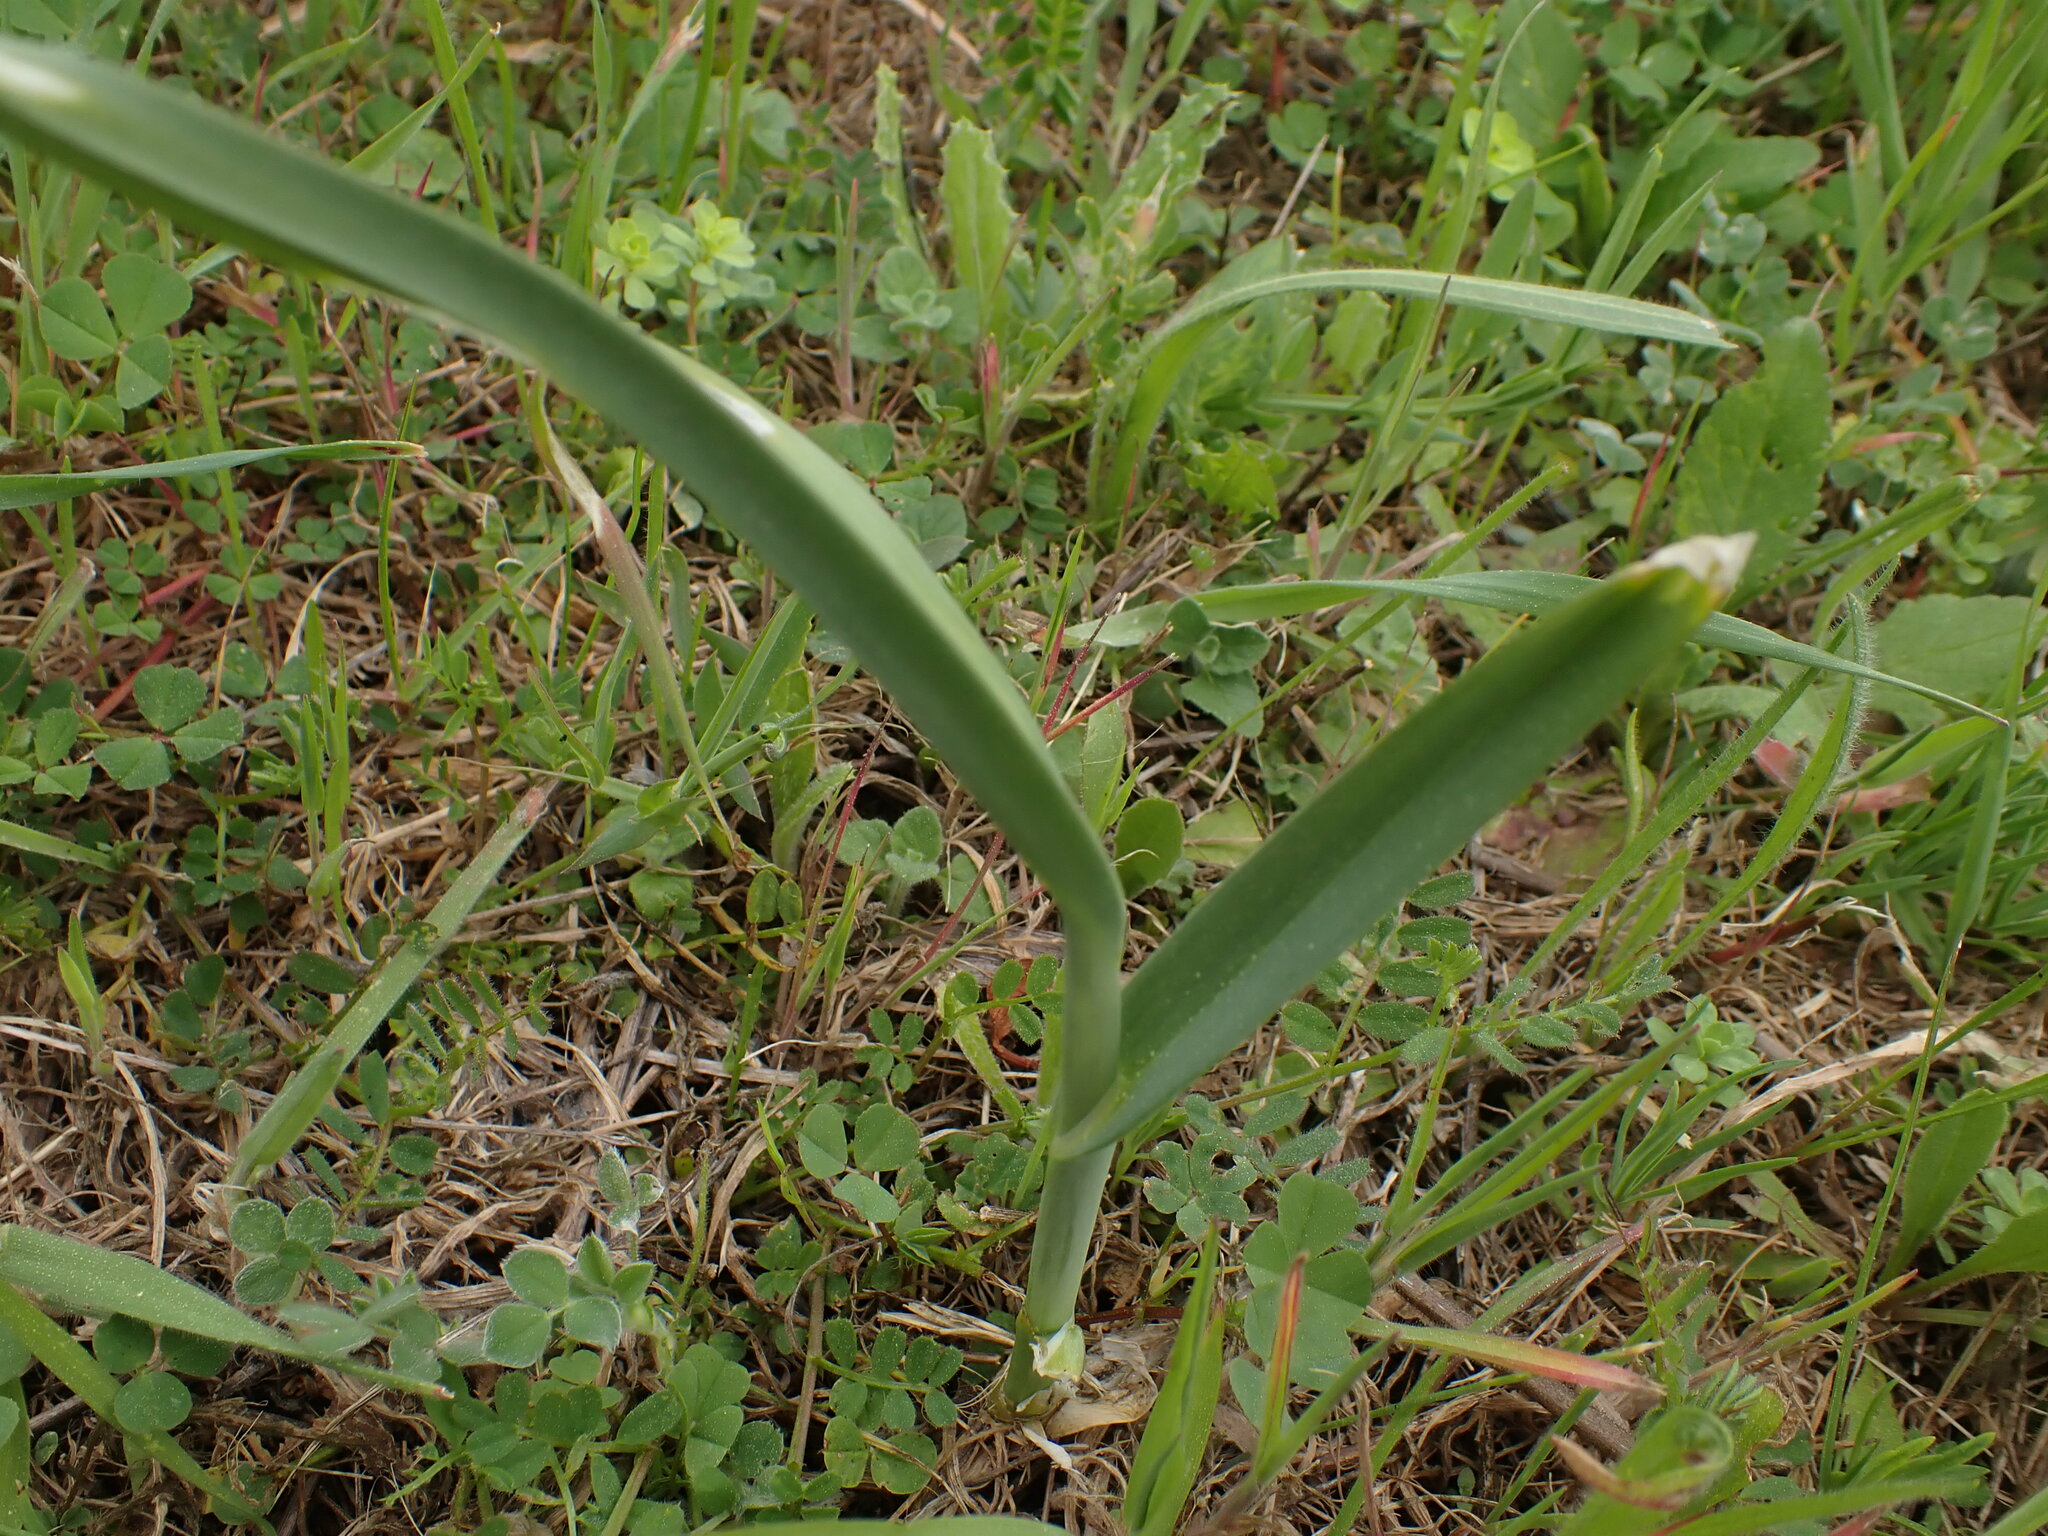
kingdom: Plantae
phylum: Tracheophyta
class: Liliopsida
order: Asparagales
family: Amaryllidaceae
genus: Allium
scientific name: Allium ampeloprasum
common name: Wild leek
